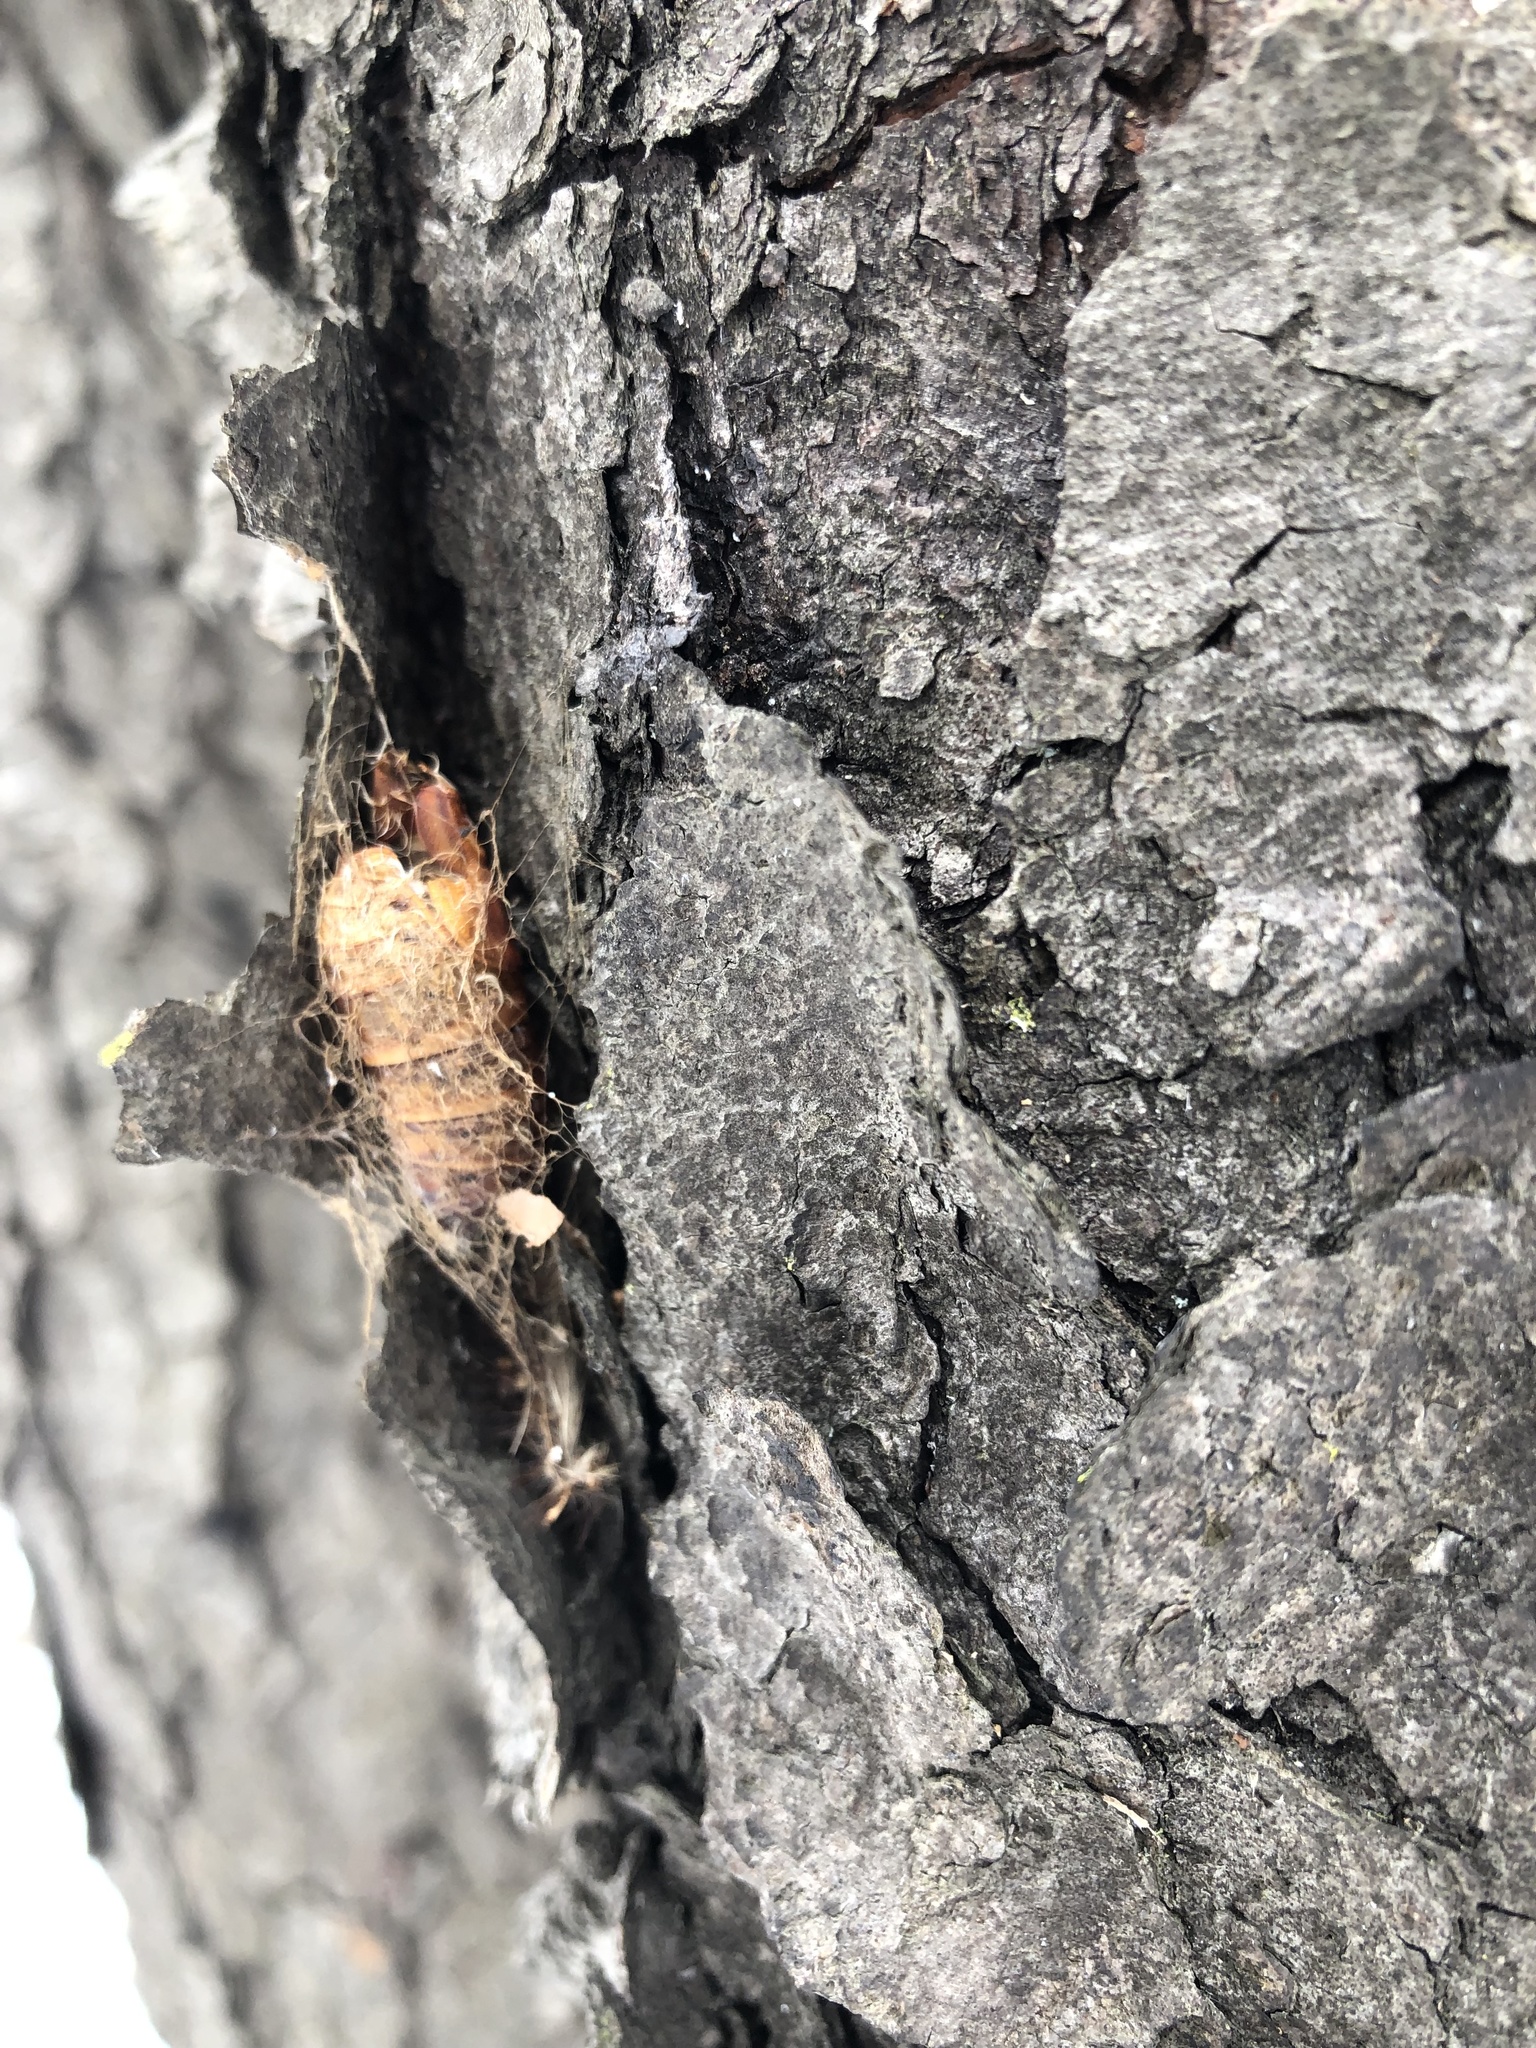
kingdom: Animalia
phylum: Arthropoda
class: Insecta
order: Lepidoptera
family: Erebidae
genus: Lymantria
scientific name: Lymantria dispar
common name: Gypsy moth
